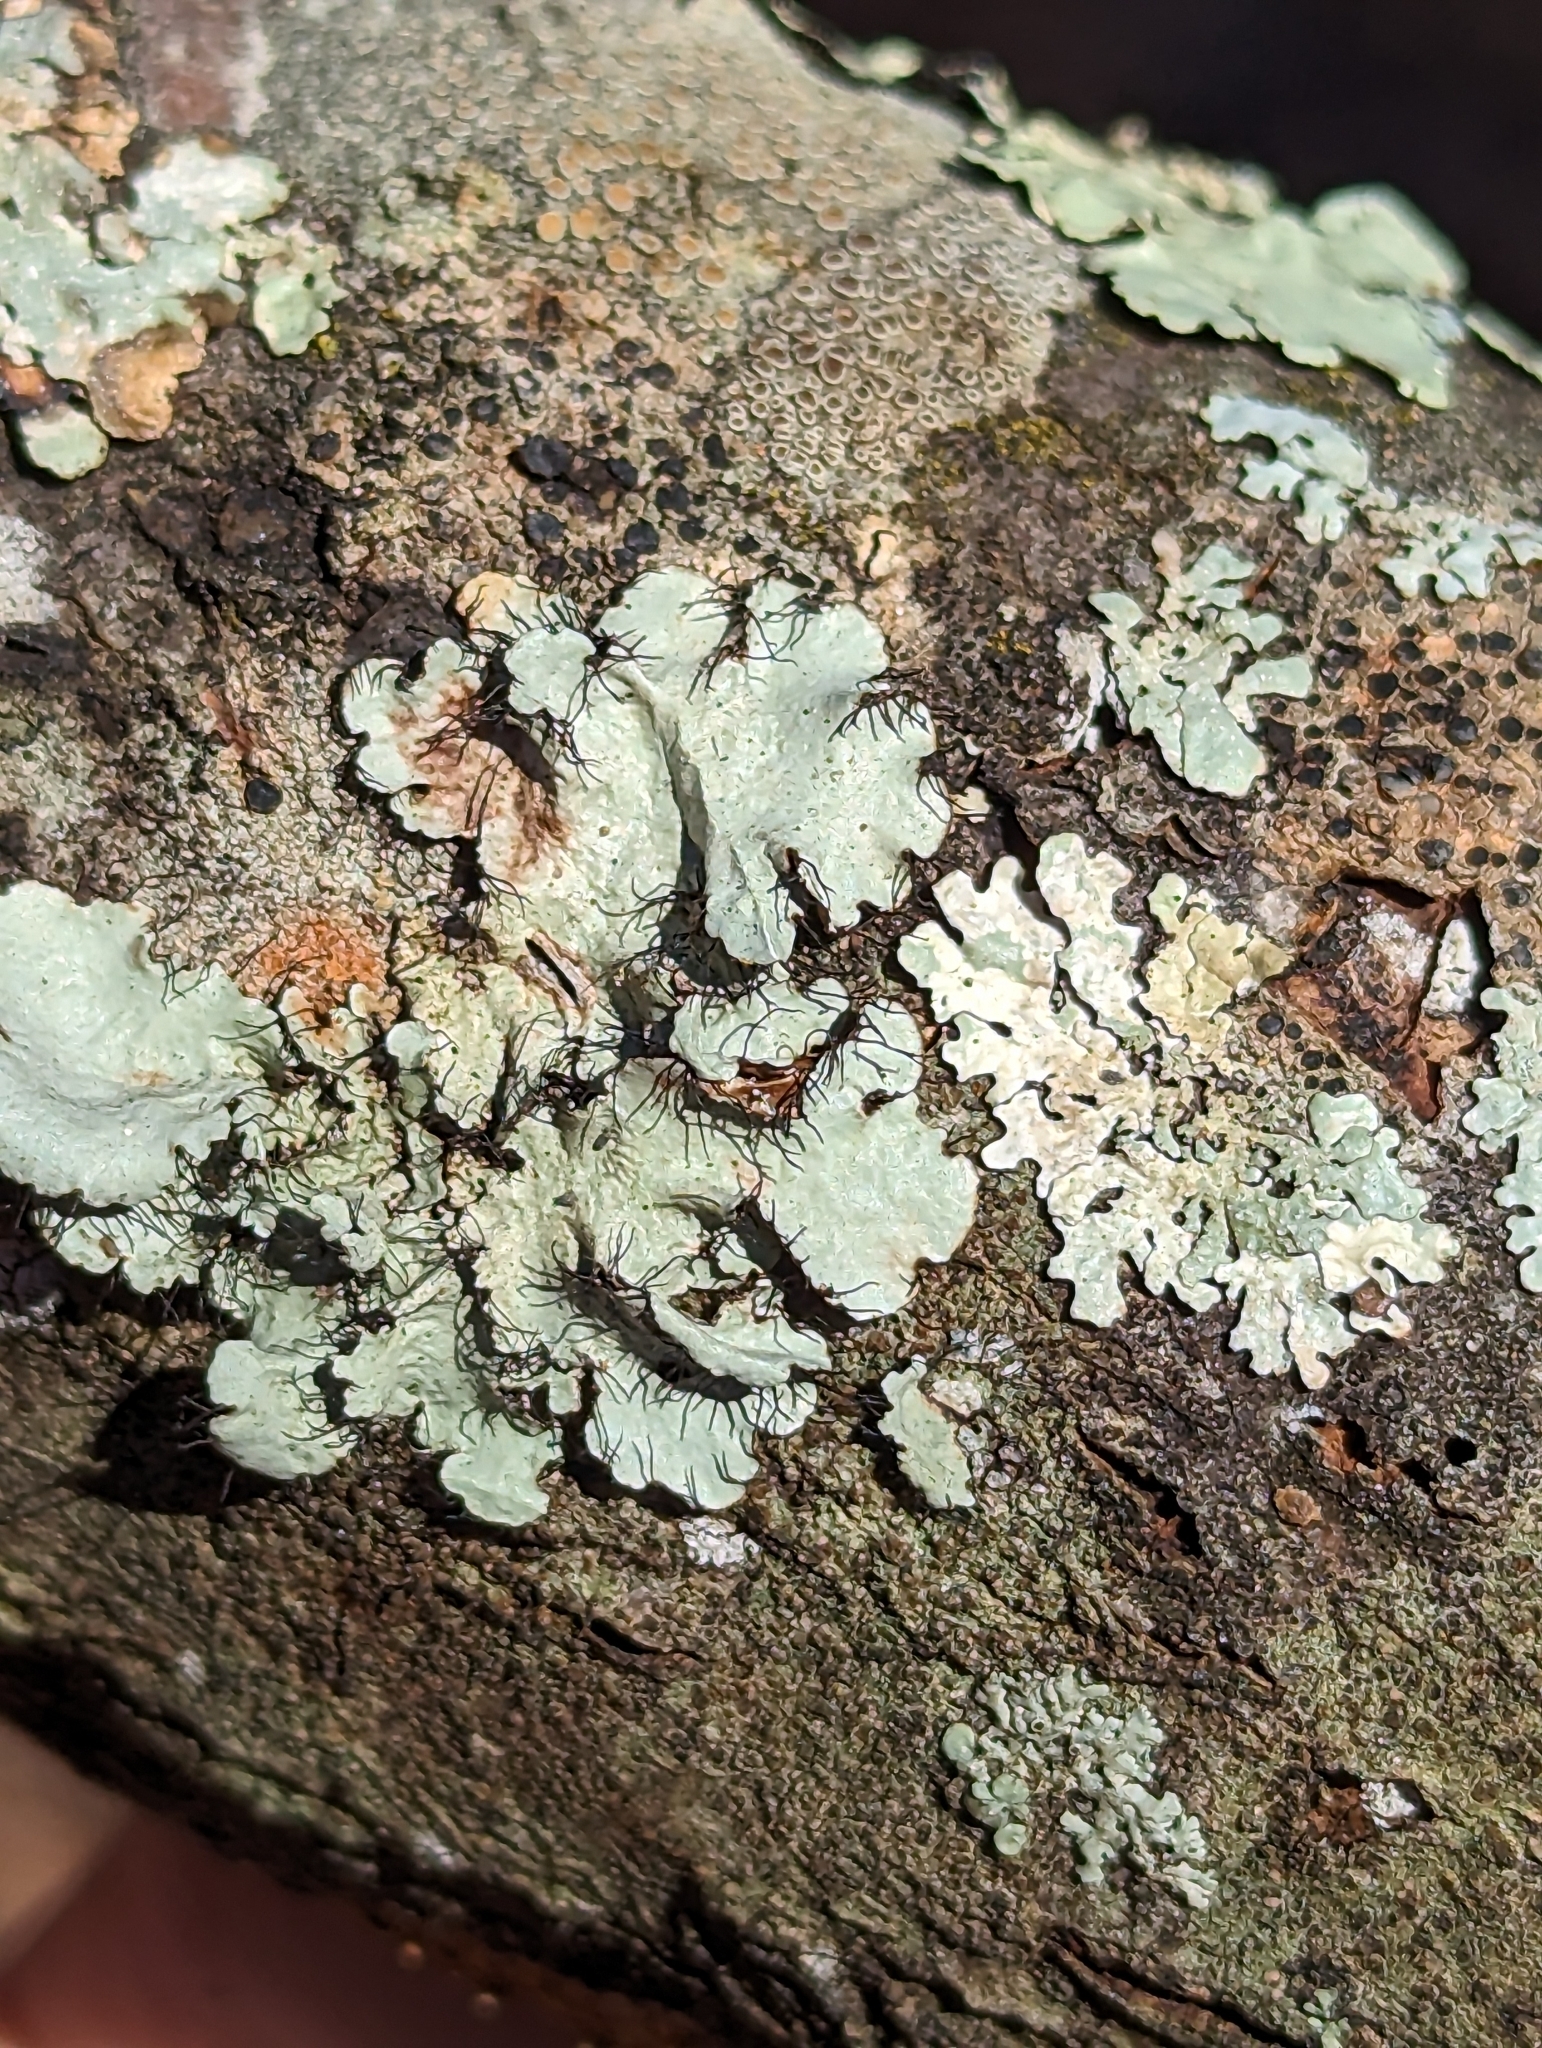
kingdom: Fungi
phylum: Ascomycota
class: Lecanoromycetes
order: Lecanorales
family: Parmeliaceae
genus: Parmotrema
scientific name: Parmotrema hypotropum
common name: Powdered ruffle lichen
